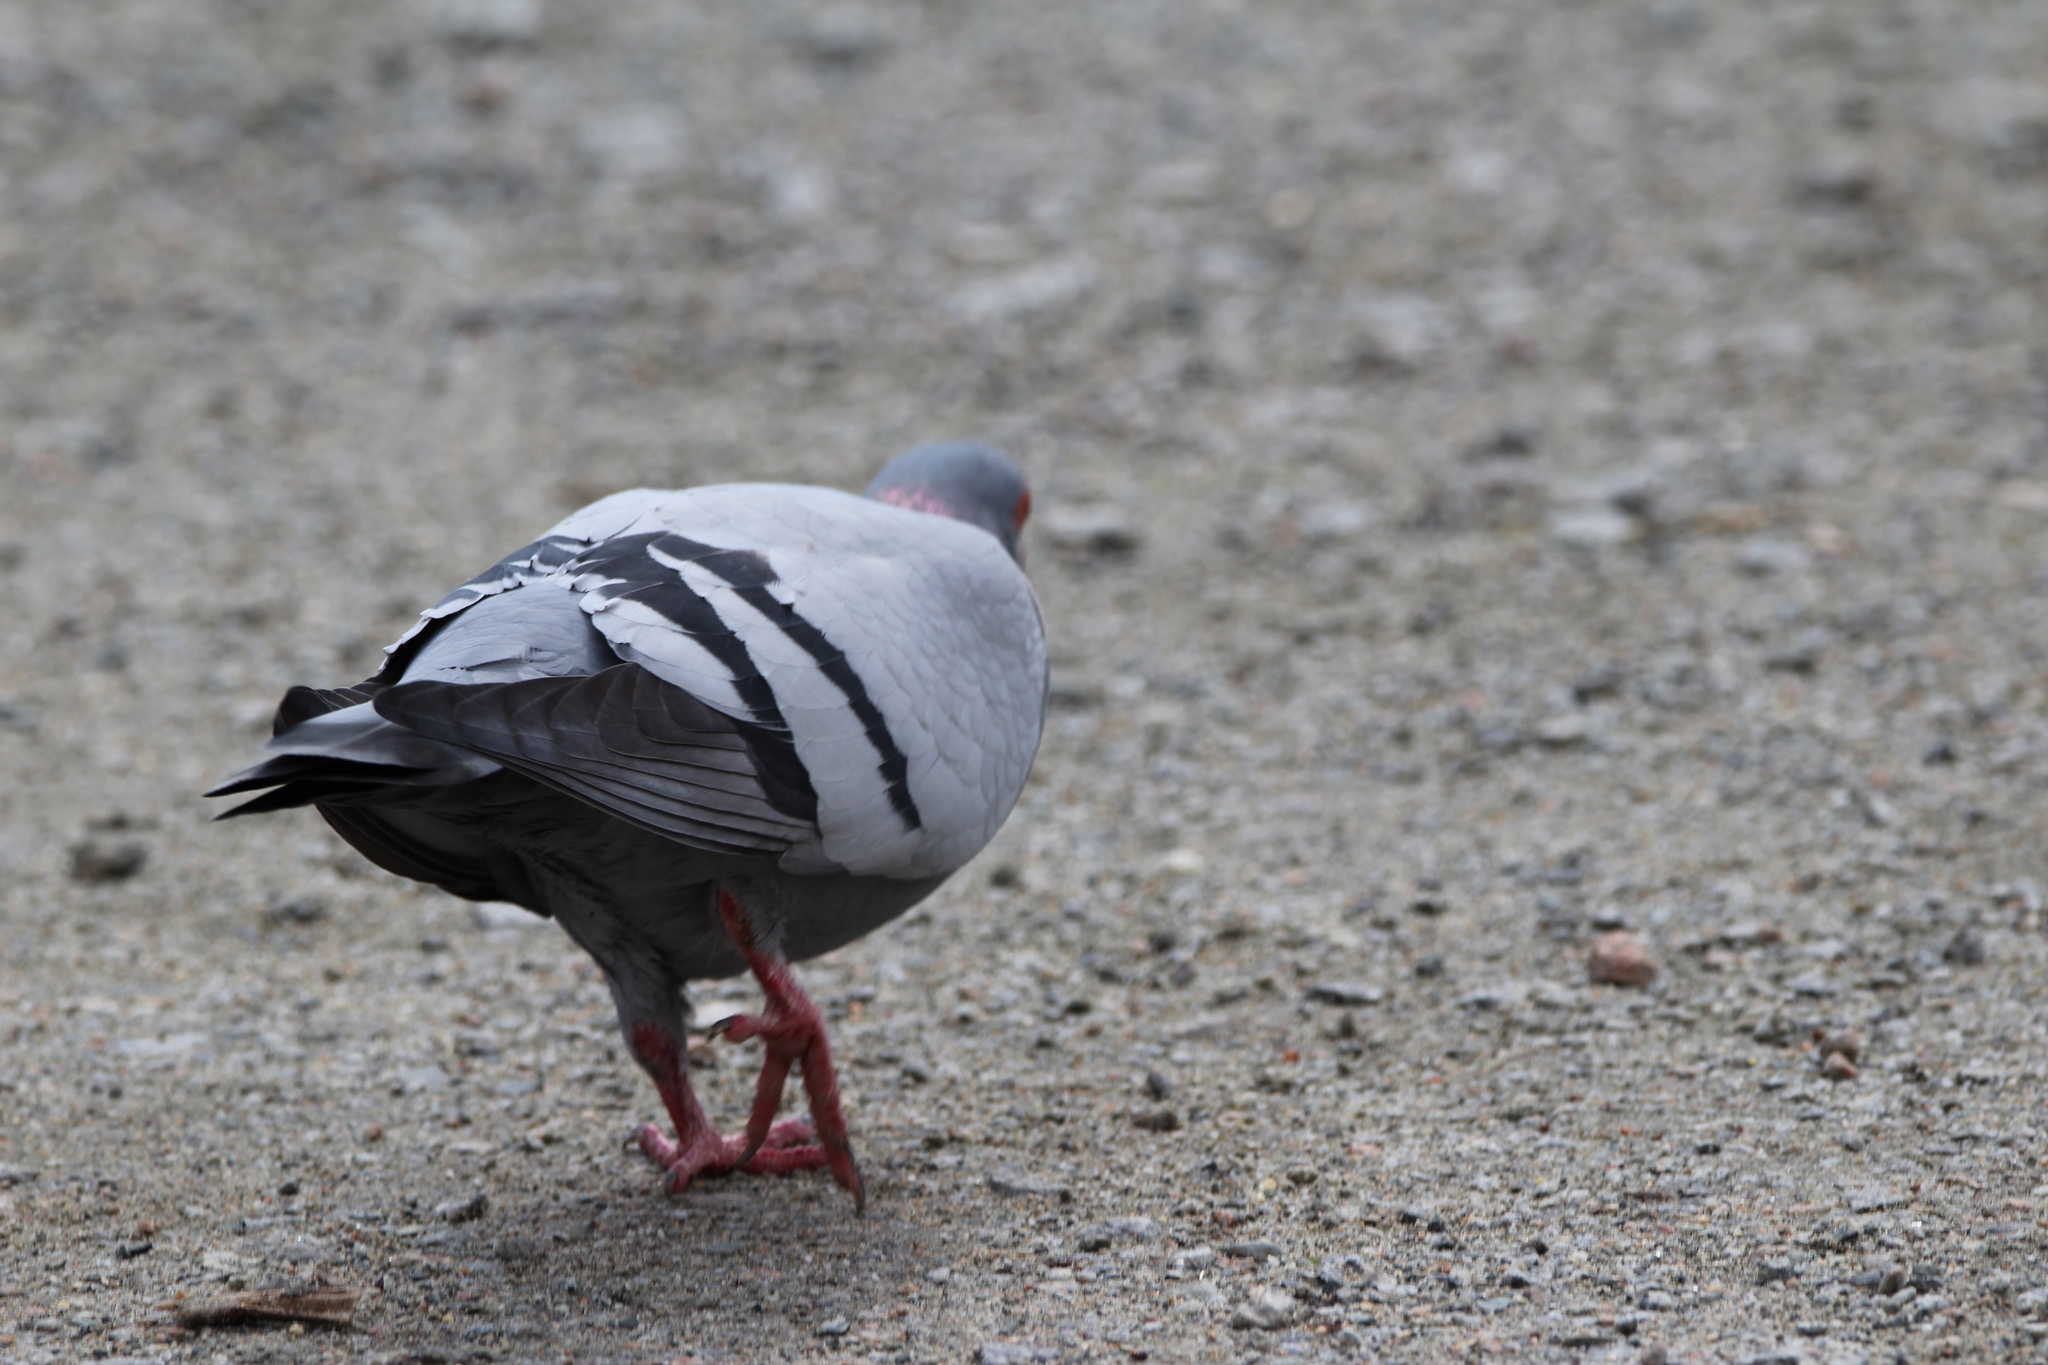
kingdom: Animalia
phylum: Chordata
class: Aves
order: Columbiformes
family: Columbidae
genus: Columba
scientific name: Columba livia
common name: Rock pigeon
